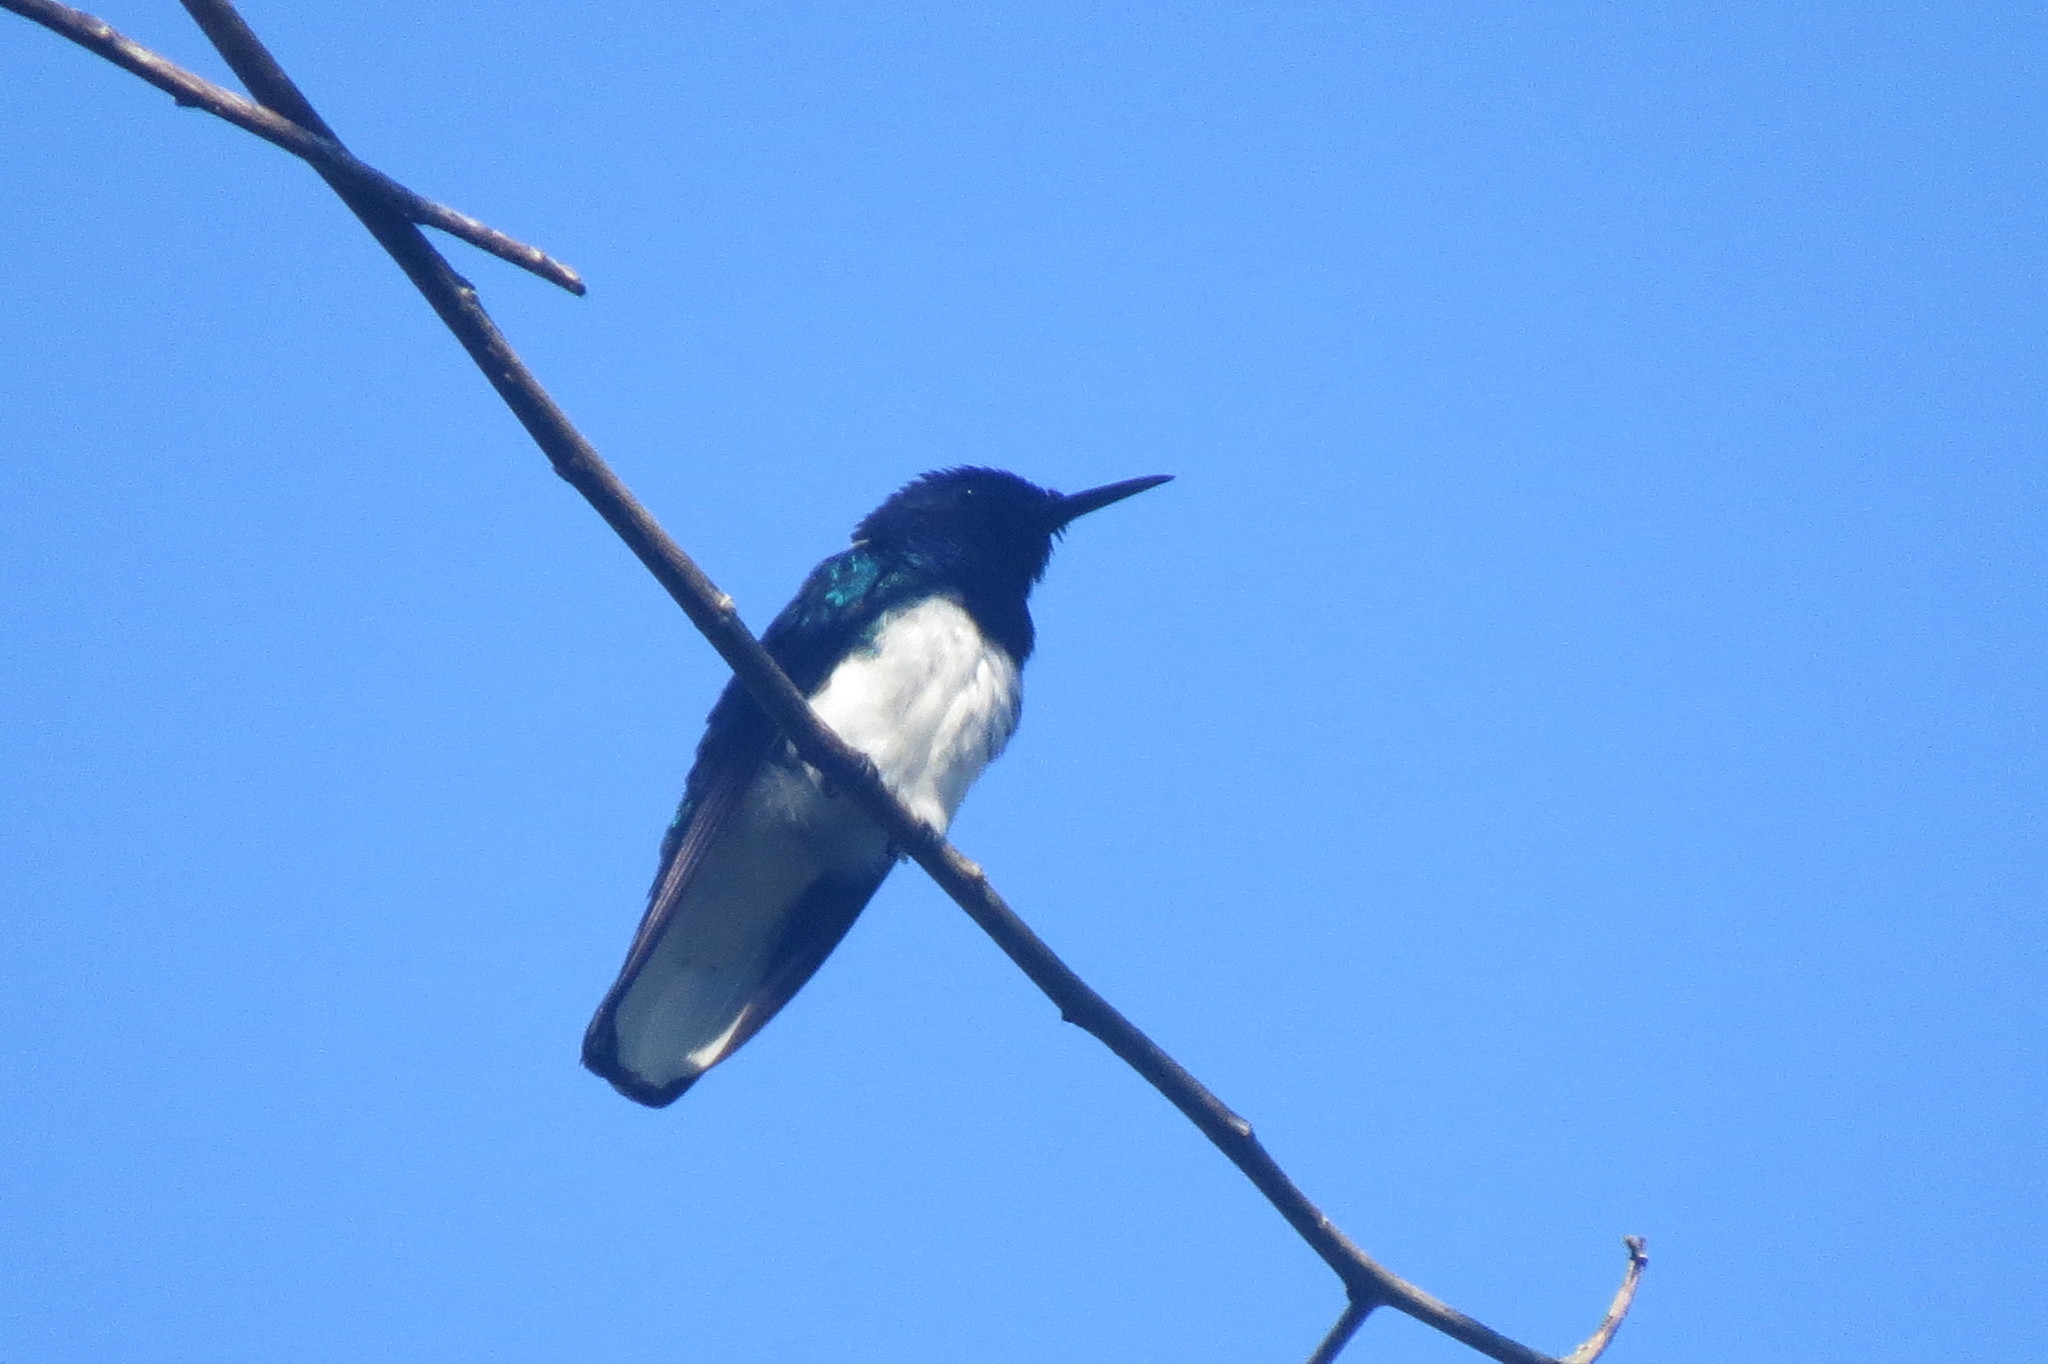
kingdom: Animalia
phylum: Chordata
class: Aves
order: Apodiformes
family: Trochilidae
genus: Florisuga
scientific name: Florisuga mellivora
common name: White-necked jacobin
